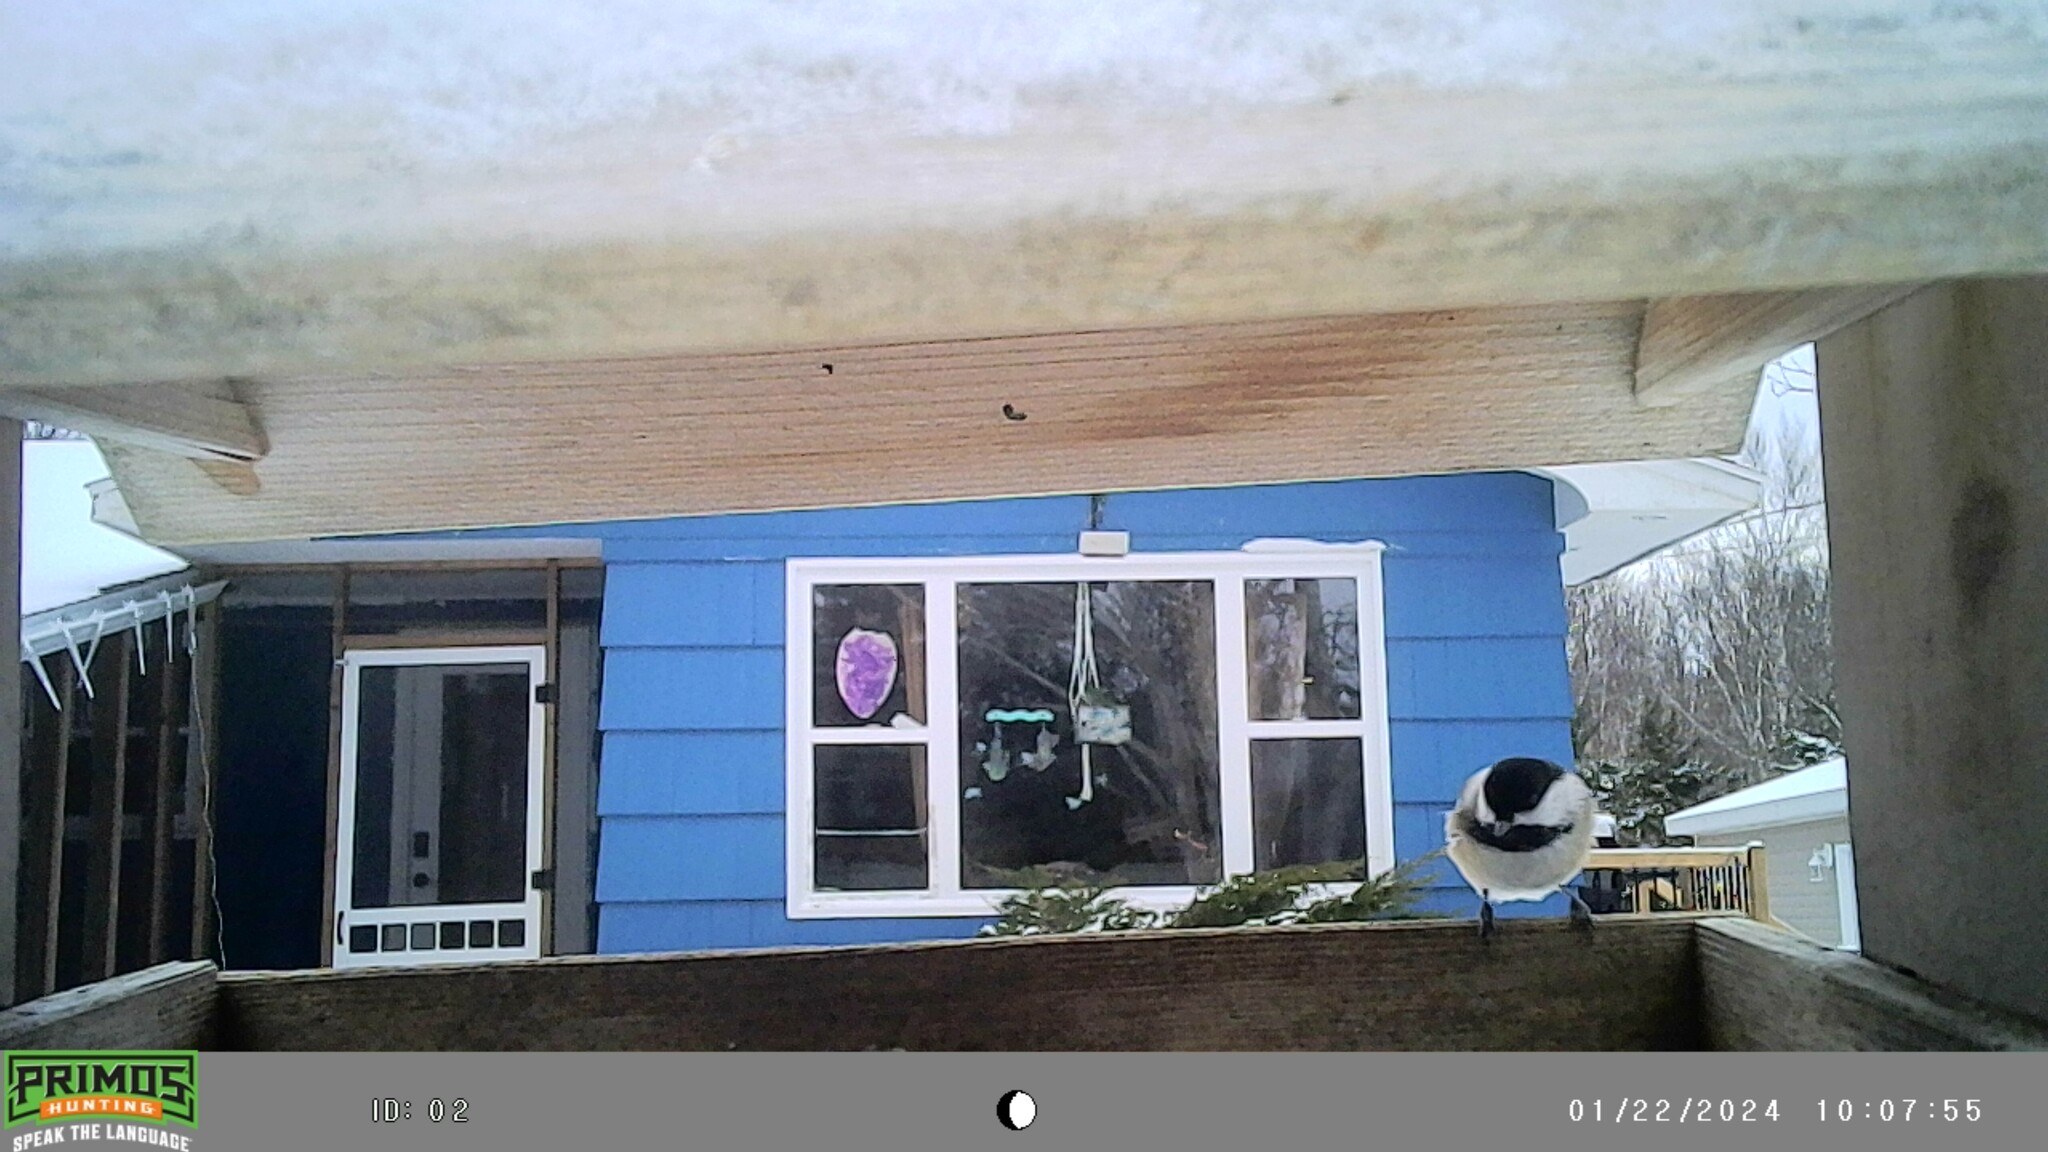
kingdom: Animalia
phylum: Chordata
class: Aves
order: Passeriformes
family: Paridae
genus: Poecile
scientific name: Poecile atricapillus
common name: Black-capped chickadee
